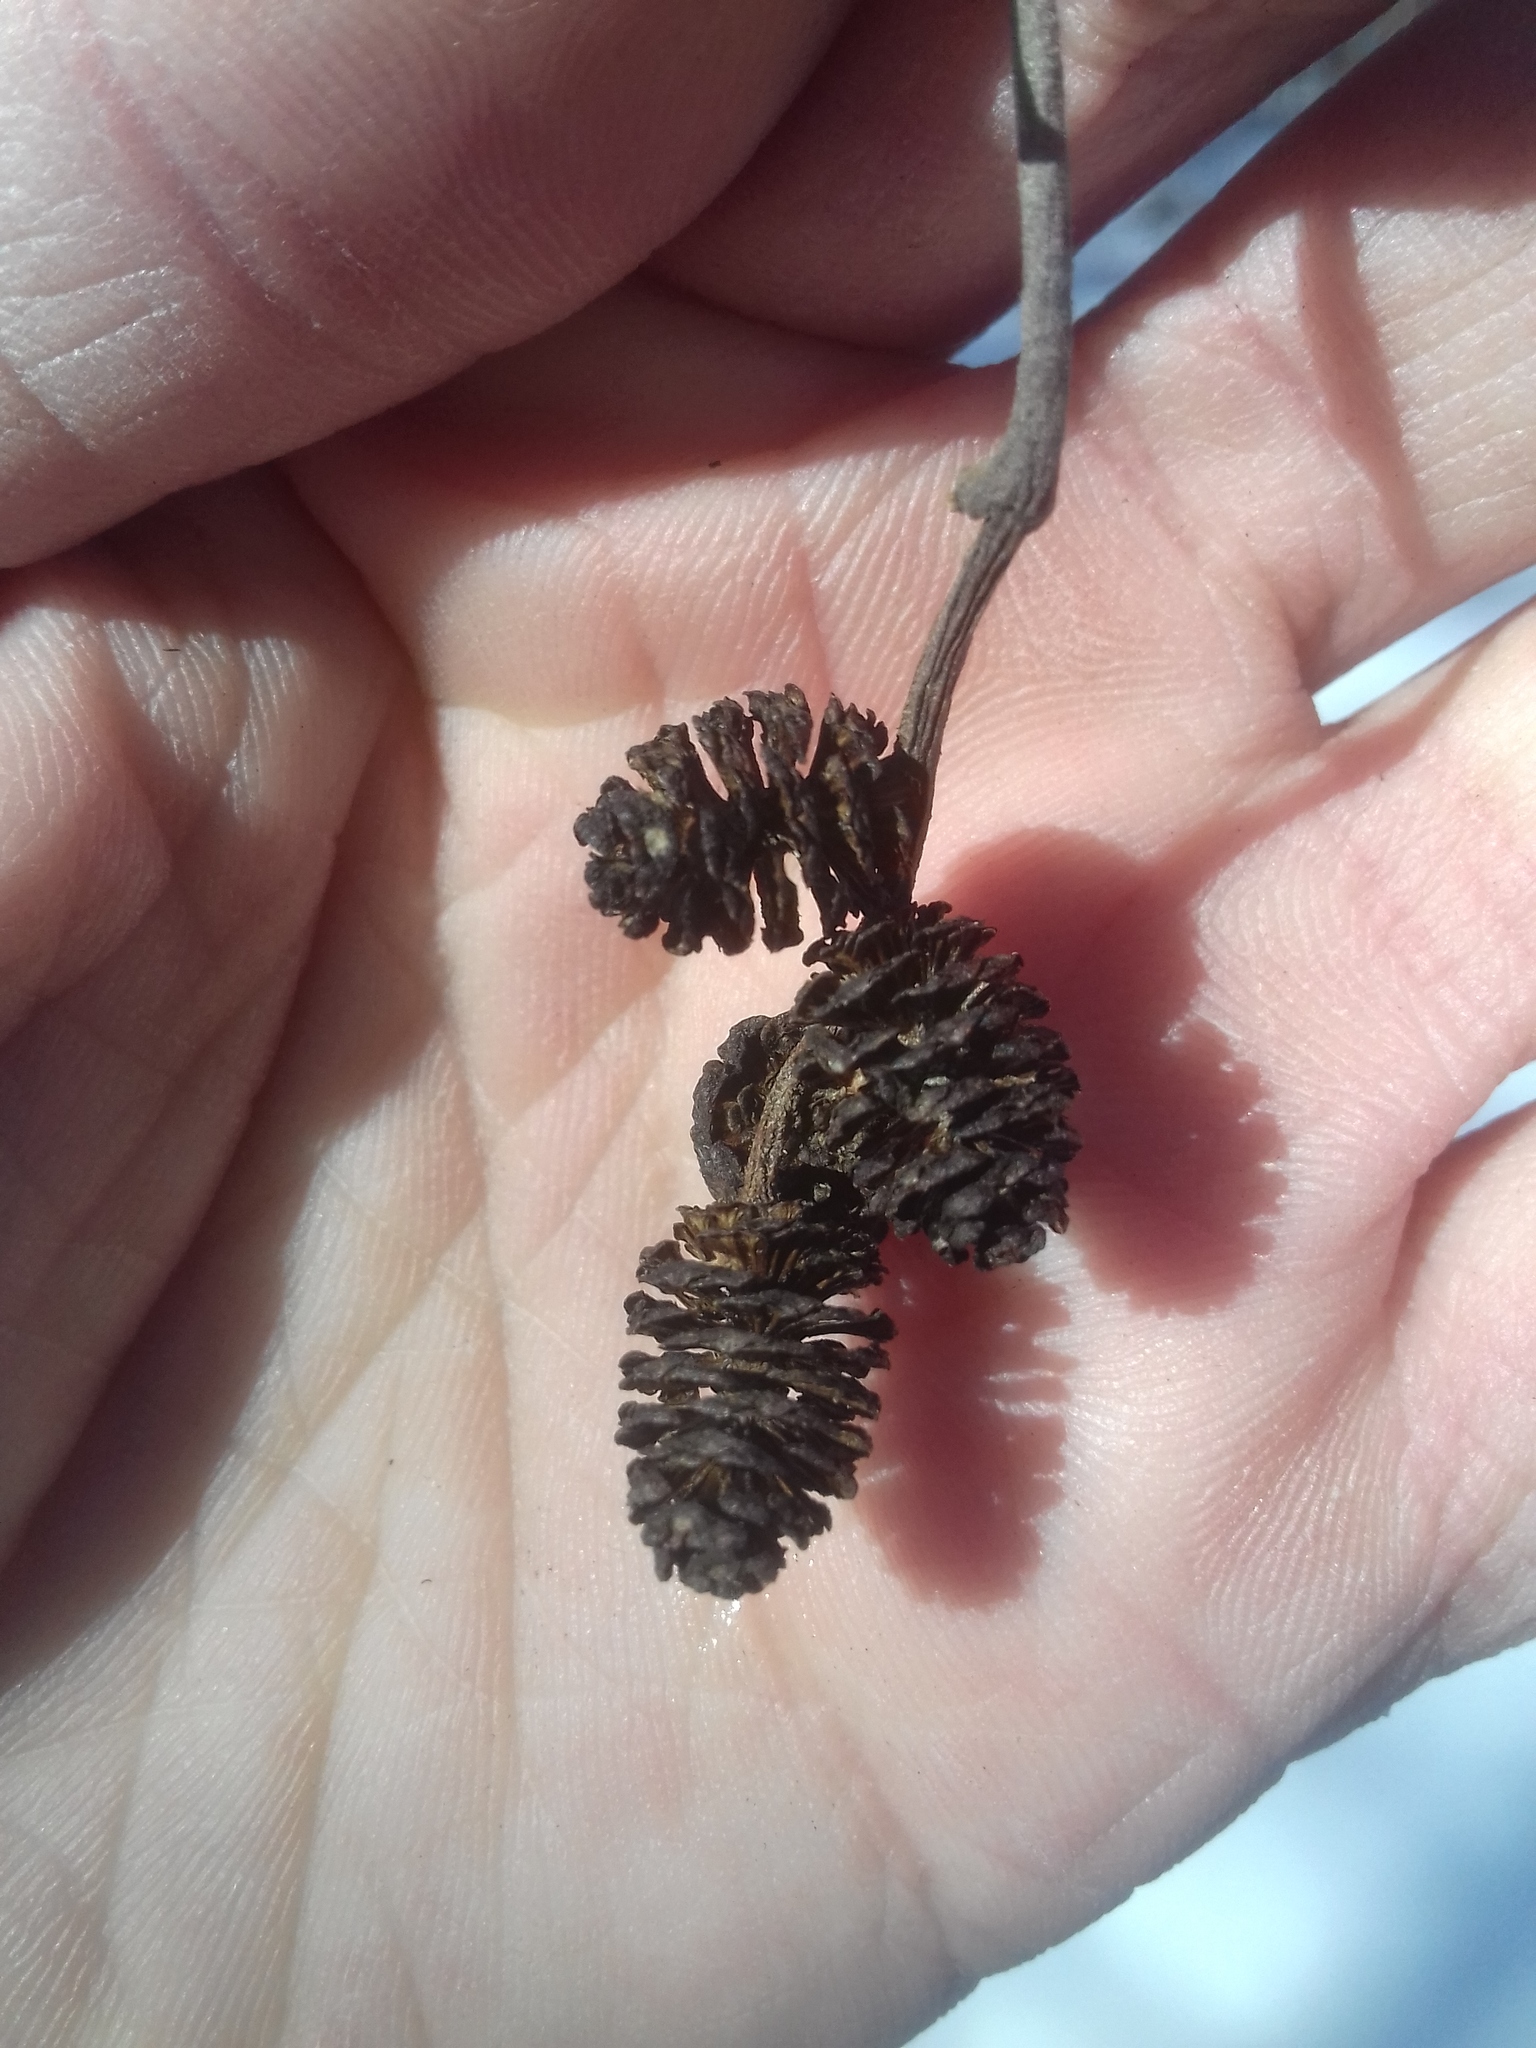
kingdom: Plantae
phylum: Tracheophyta
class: Magnoliopsida
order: Fagales
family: Betulaceae
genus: Alnus
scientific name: Alnus incana
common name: Grey alder
